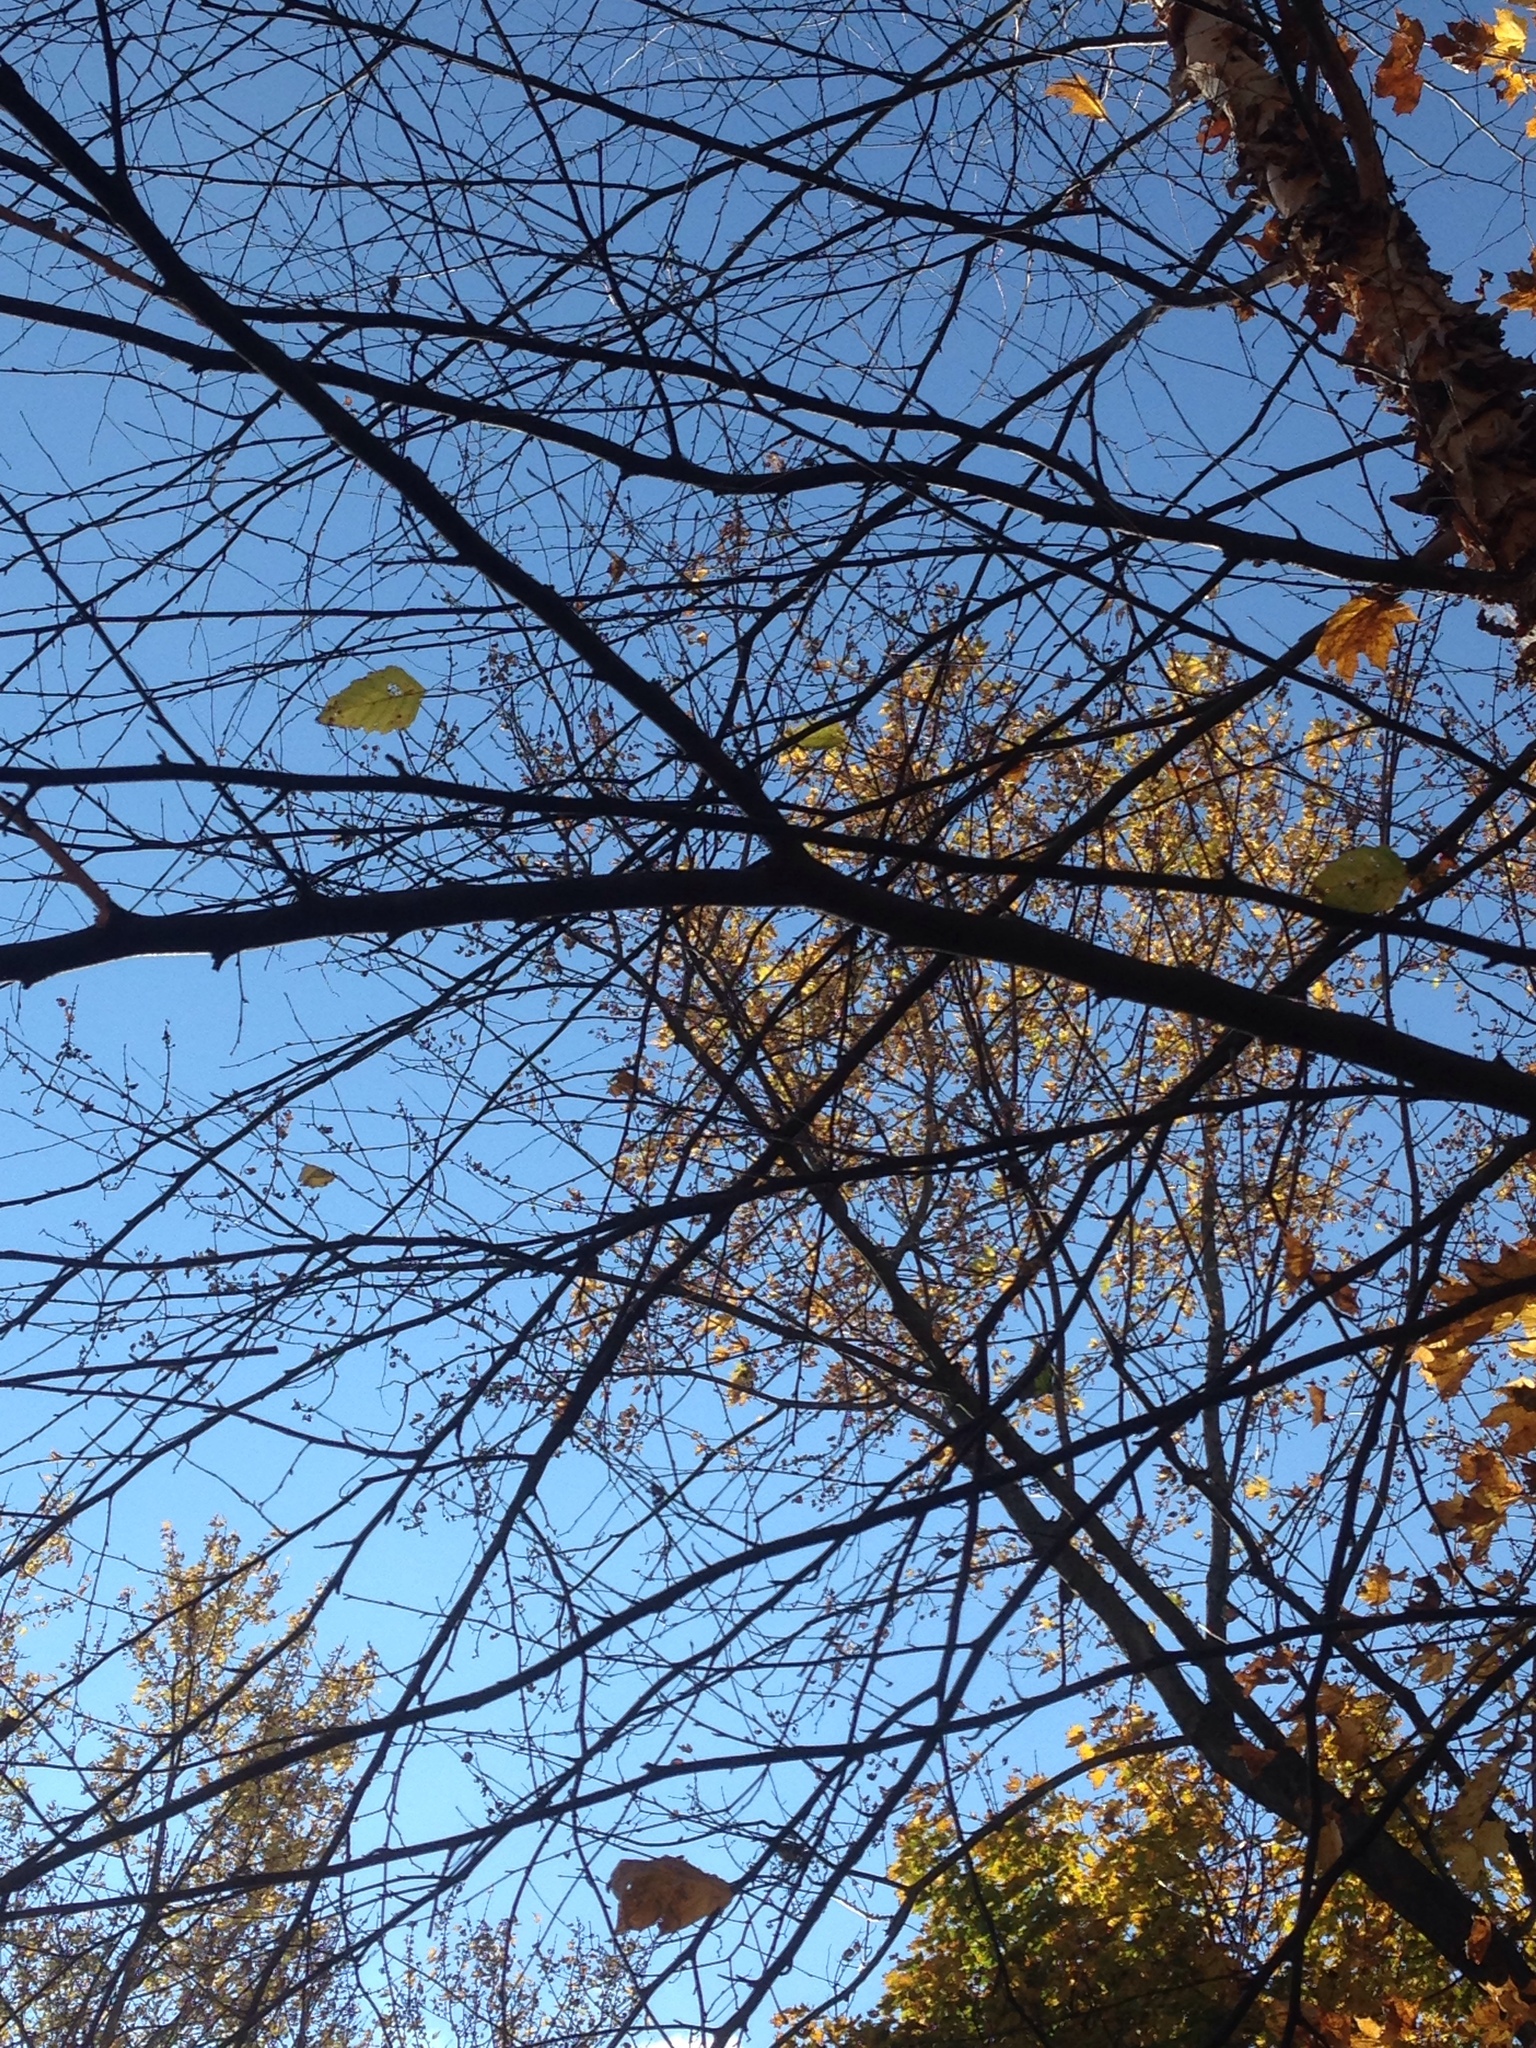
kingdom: Plantae
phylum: Tracheophyta
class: Magnoliopsida
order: Fagales
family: Betulaceae
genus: Betula
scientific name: Betula nigra
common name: Black birch
